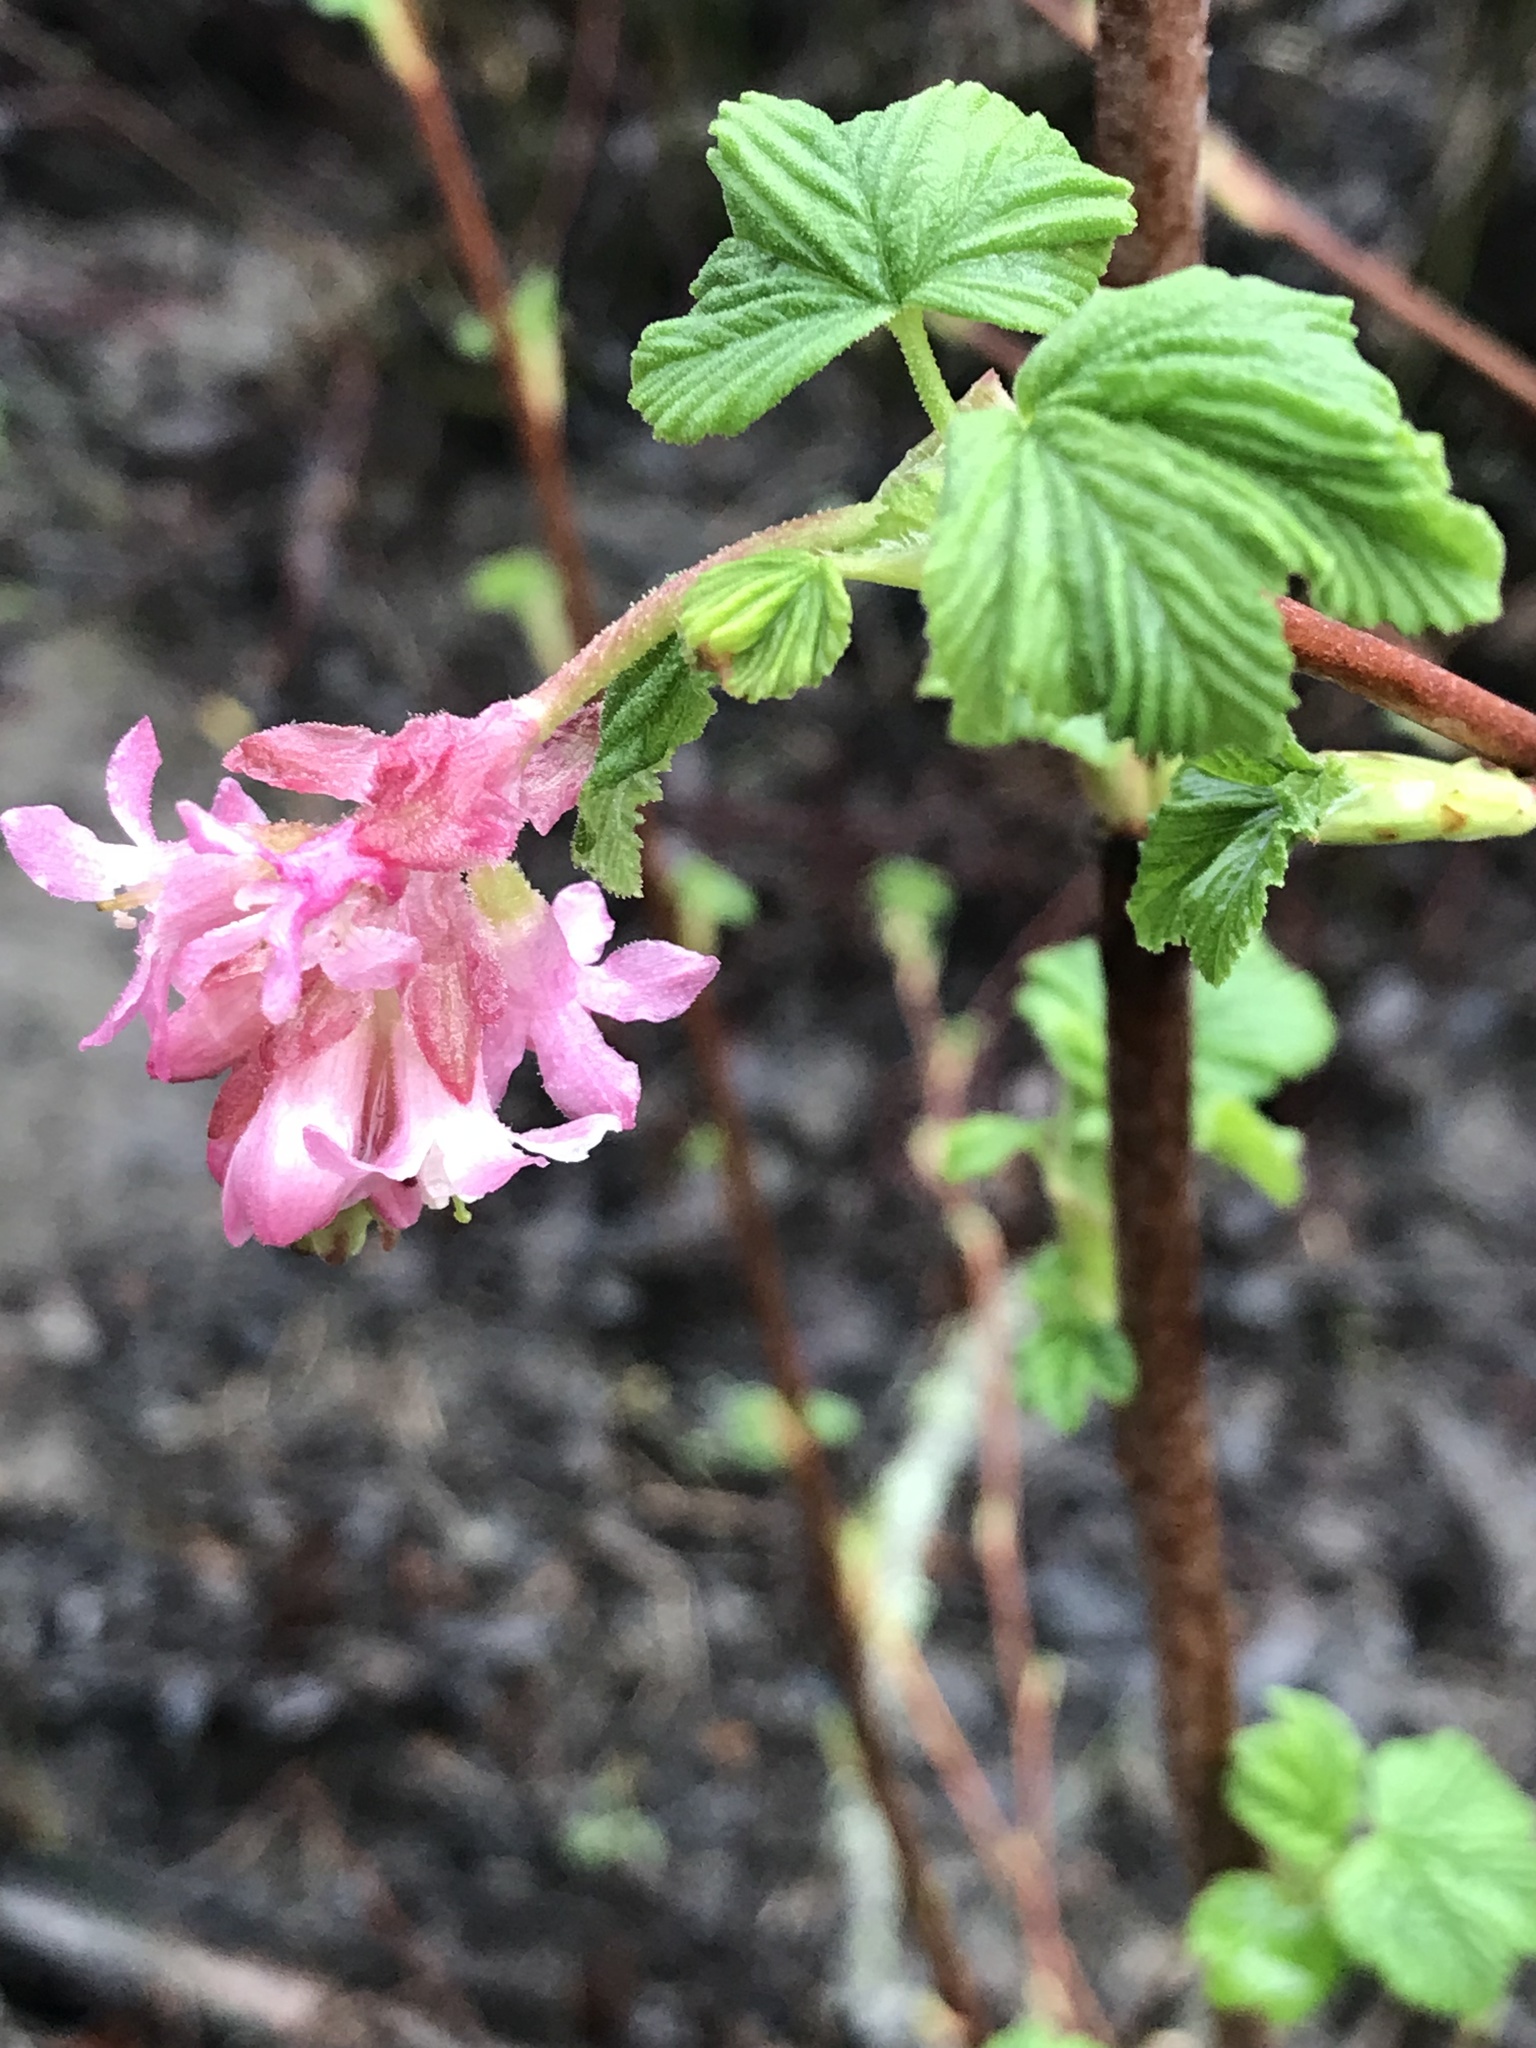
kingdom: Plantae
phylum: Tracheophyta
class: Magnoliopsida
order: Saxifragales
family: Grossulariaceae
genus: Ribes
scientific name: Ribes sanguineum
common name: Flowering currant
